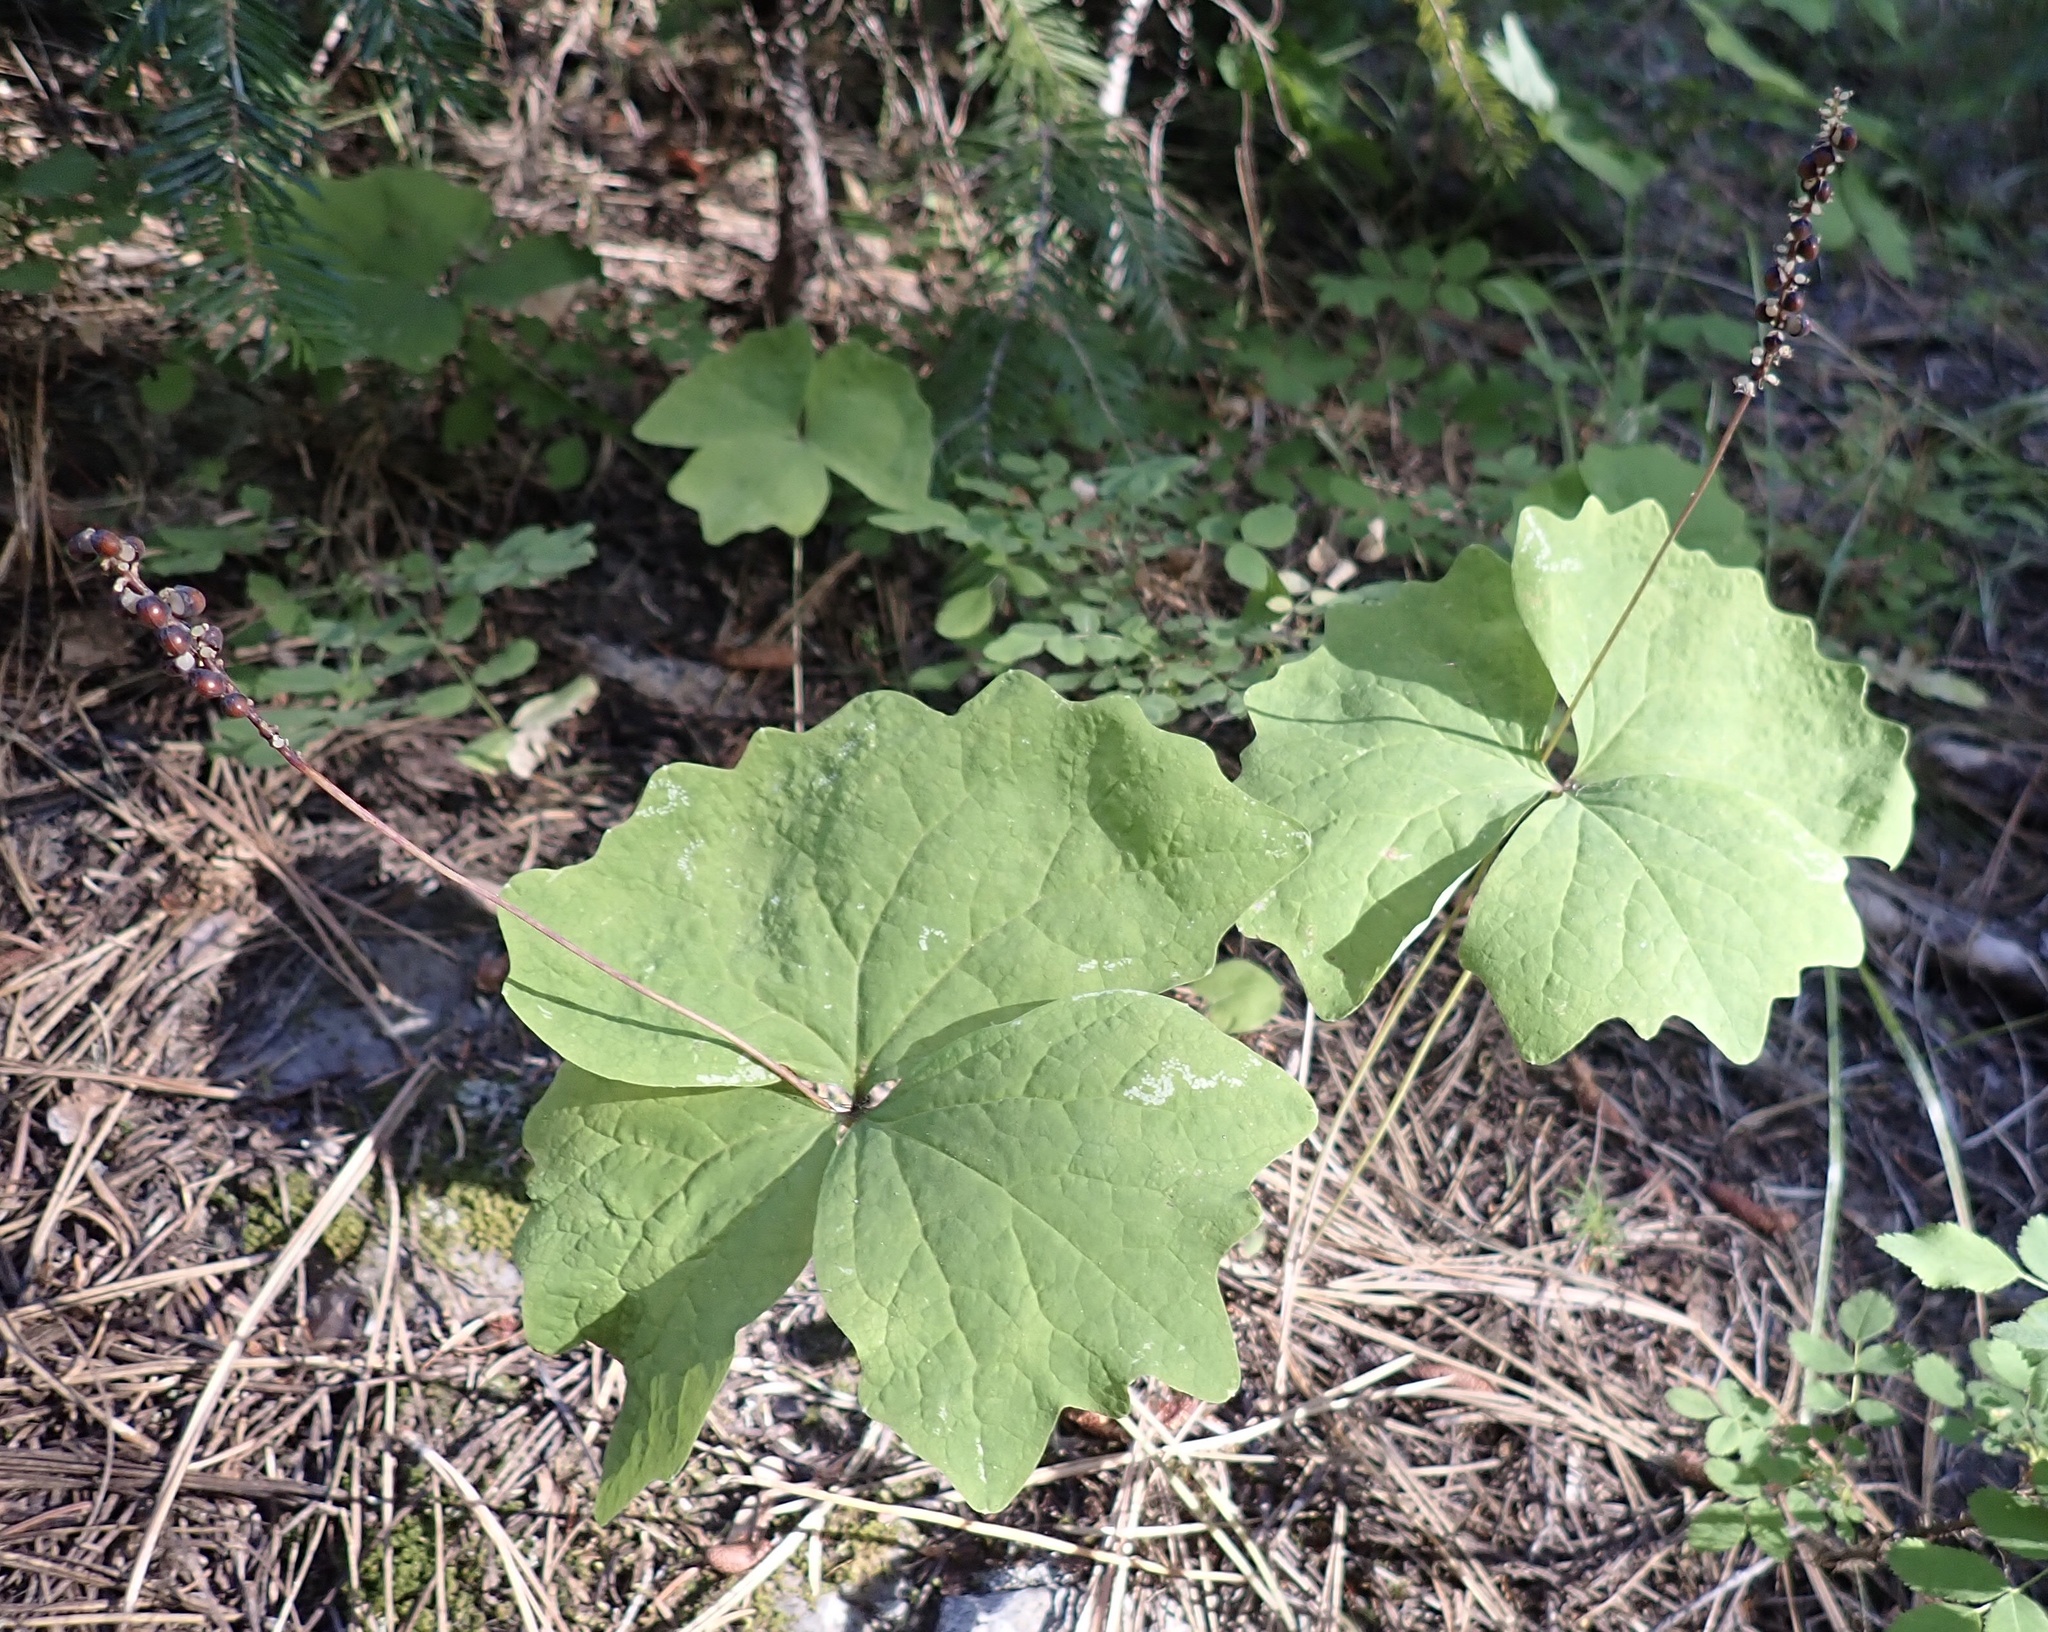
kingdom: Plantae
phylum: Tracheophyta
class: Magnoliopsida
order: Ranunculales
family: Berberidaceae
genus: Achlys
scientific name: Achlys triphylla
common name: Vanilla-leaf
